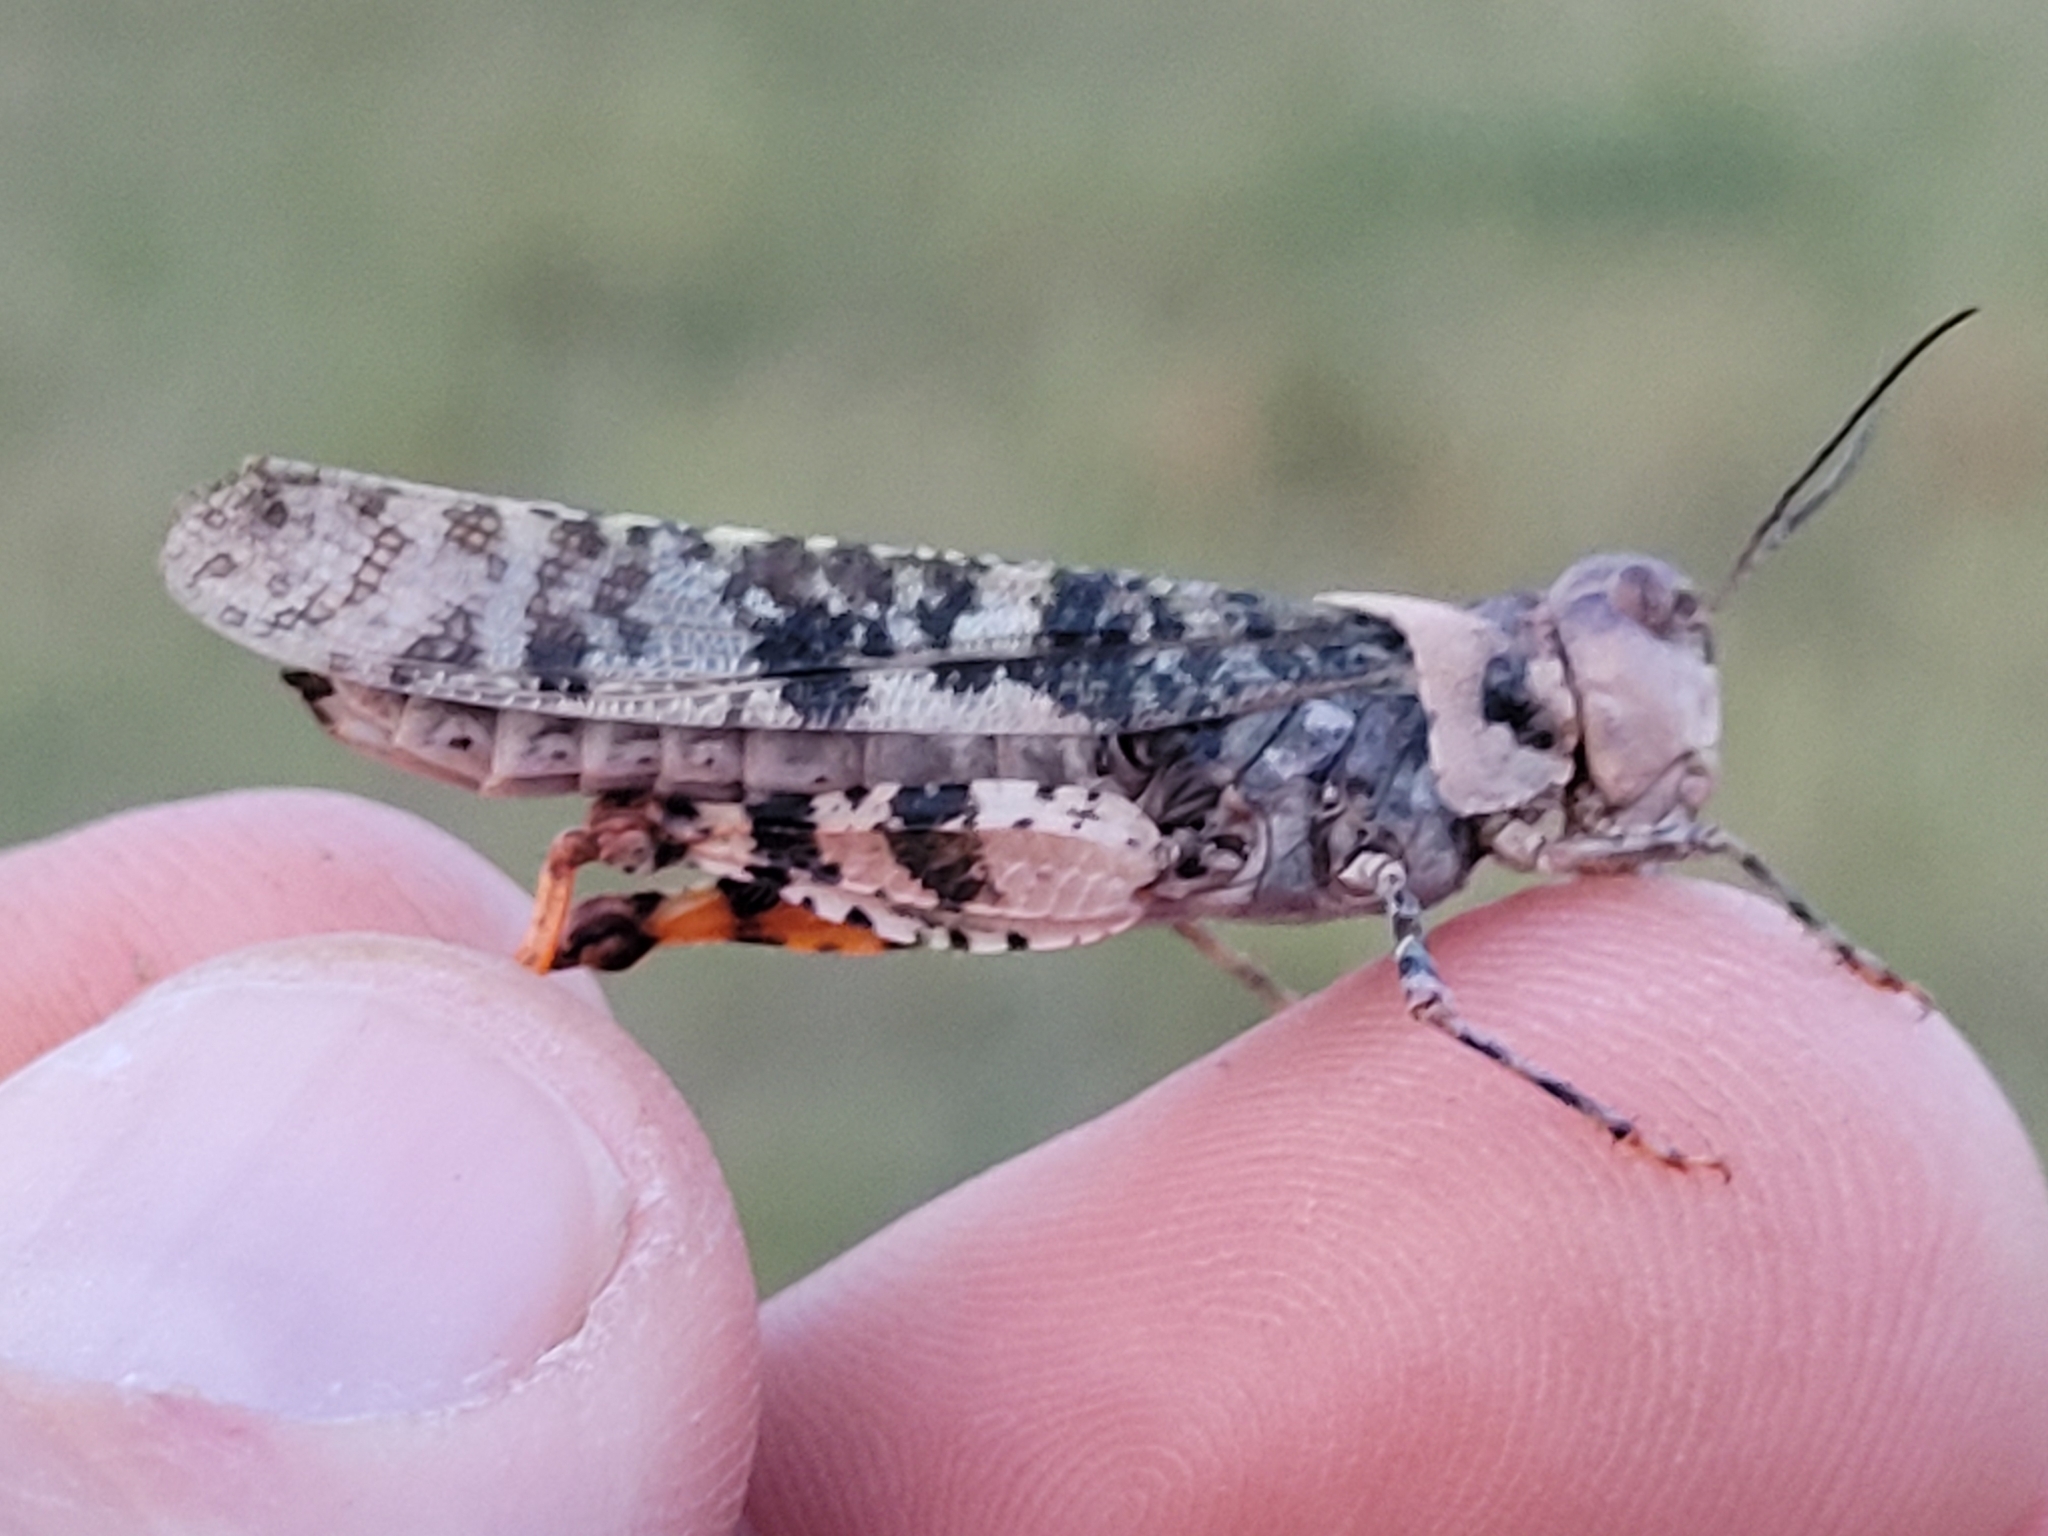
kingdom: Animalia
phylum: Arthropoda
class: Insecta
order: Orthoptera
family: Acrididae
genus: Spharagemon
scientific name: Spharagemon equale
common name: Orange-legged grasshopper
